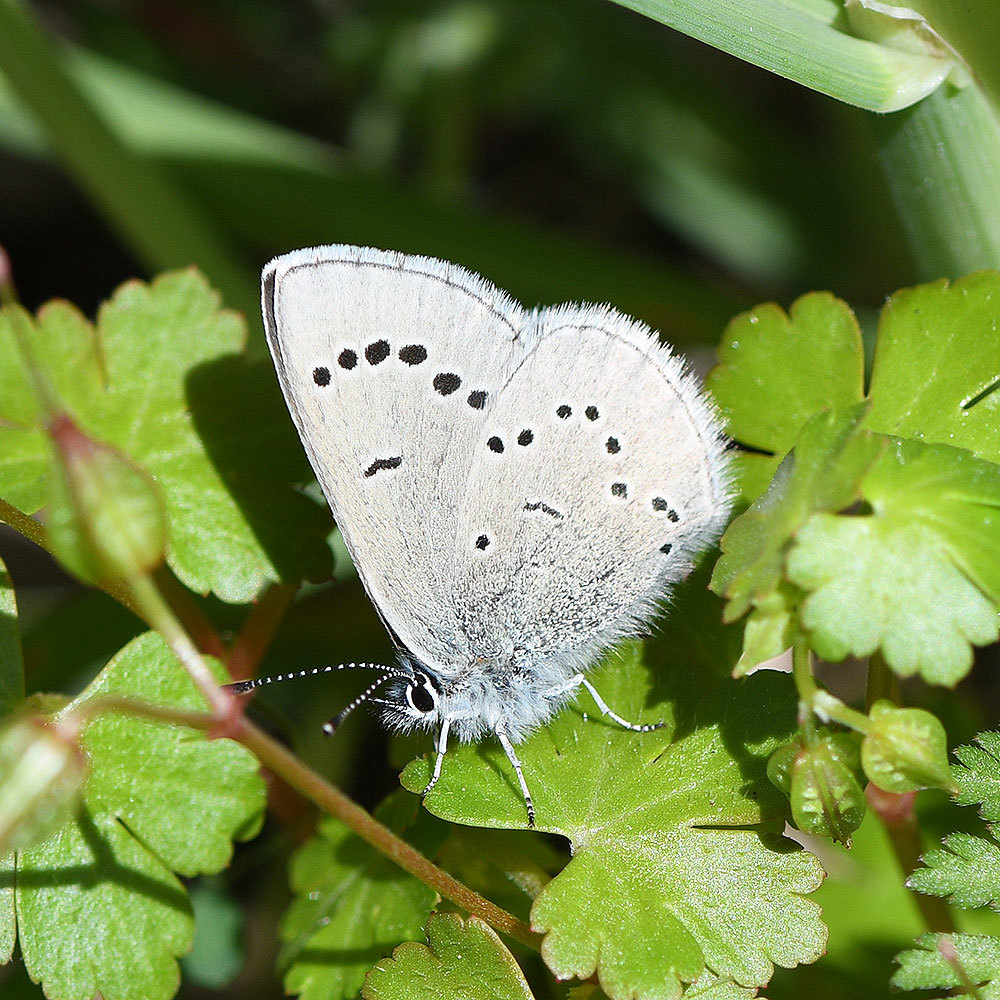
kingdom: Animalia
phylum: Arthropoda
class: Insecta
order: Lepidoptera
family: Lycaenidae
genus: Glaucopsyche
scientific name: Glaucopsyche lygdamus
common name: Silvery blue
